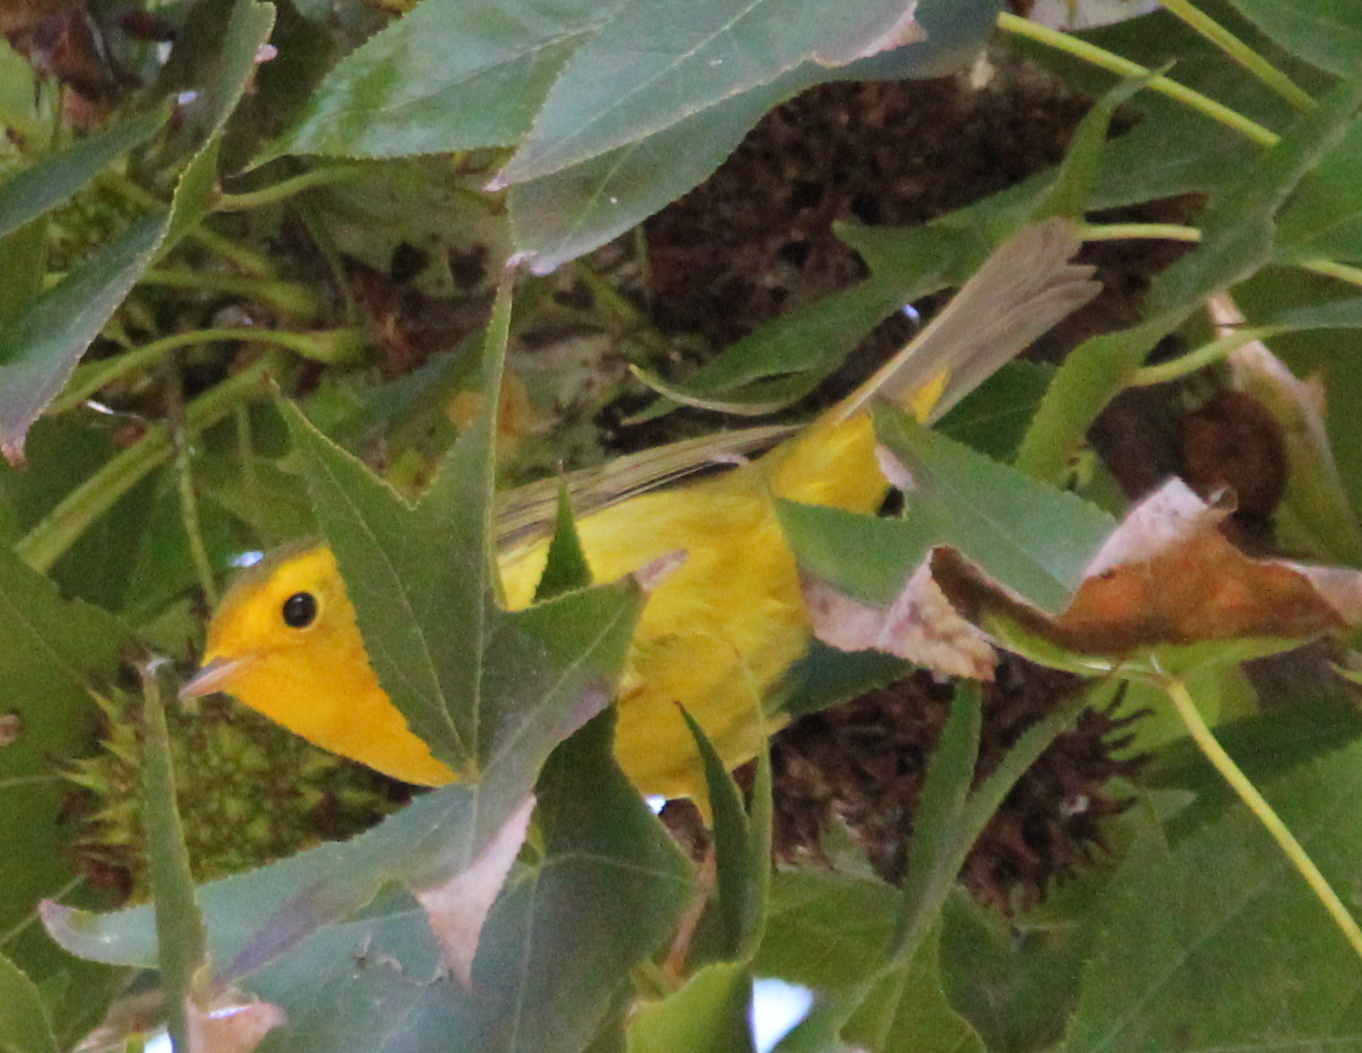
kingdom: Animalia
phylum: Chordata
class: Aves
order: Passeriformes
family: Parulidae
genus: Cardellina
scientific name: Cardellina pusilla
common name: Wilson's warbler
